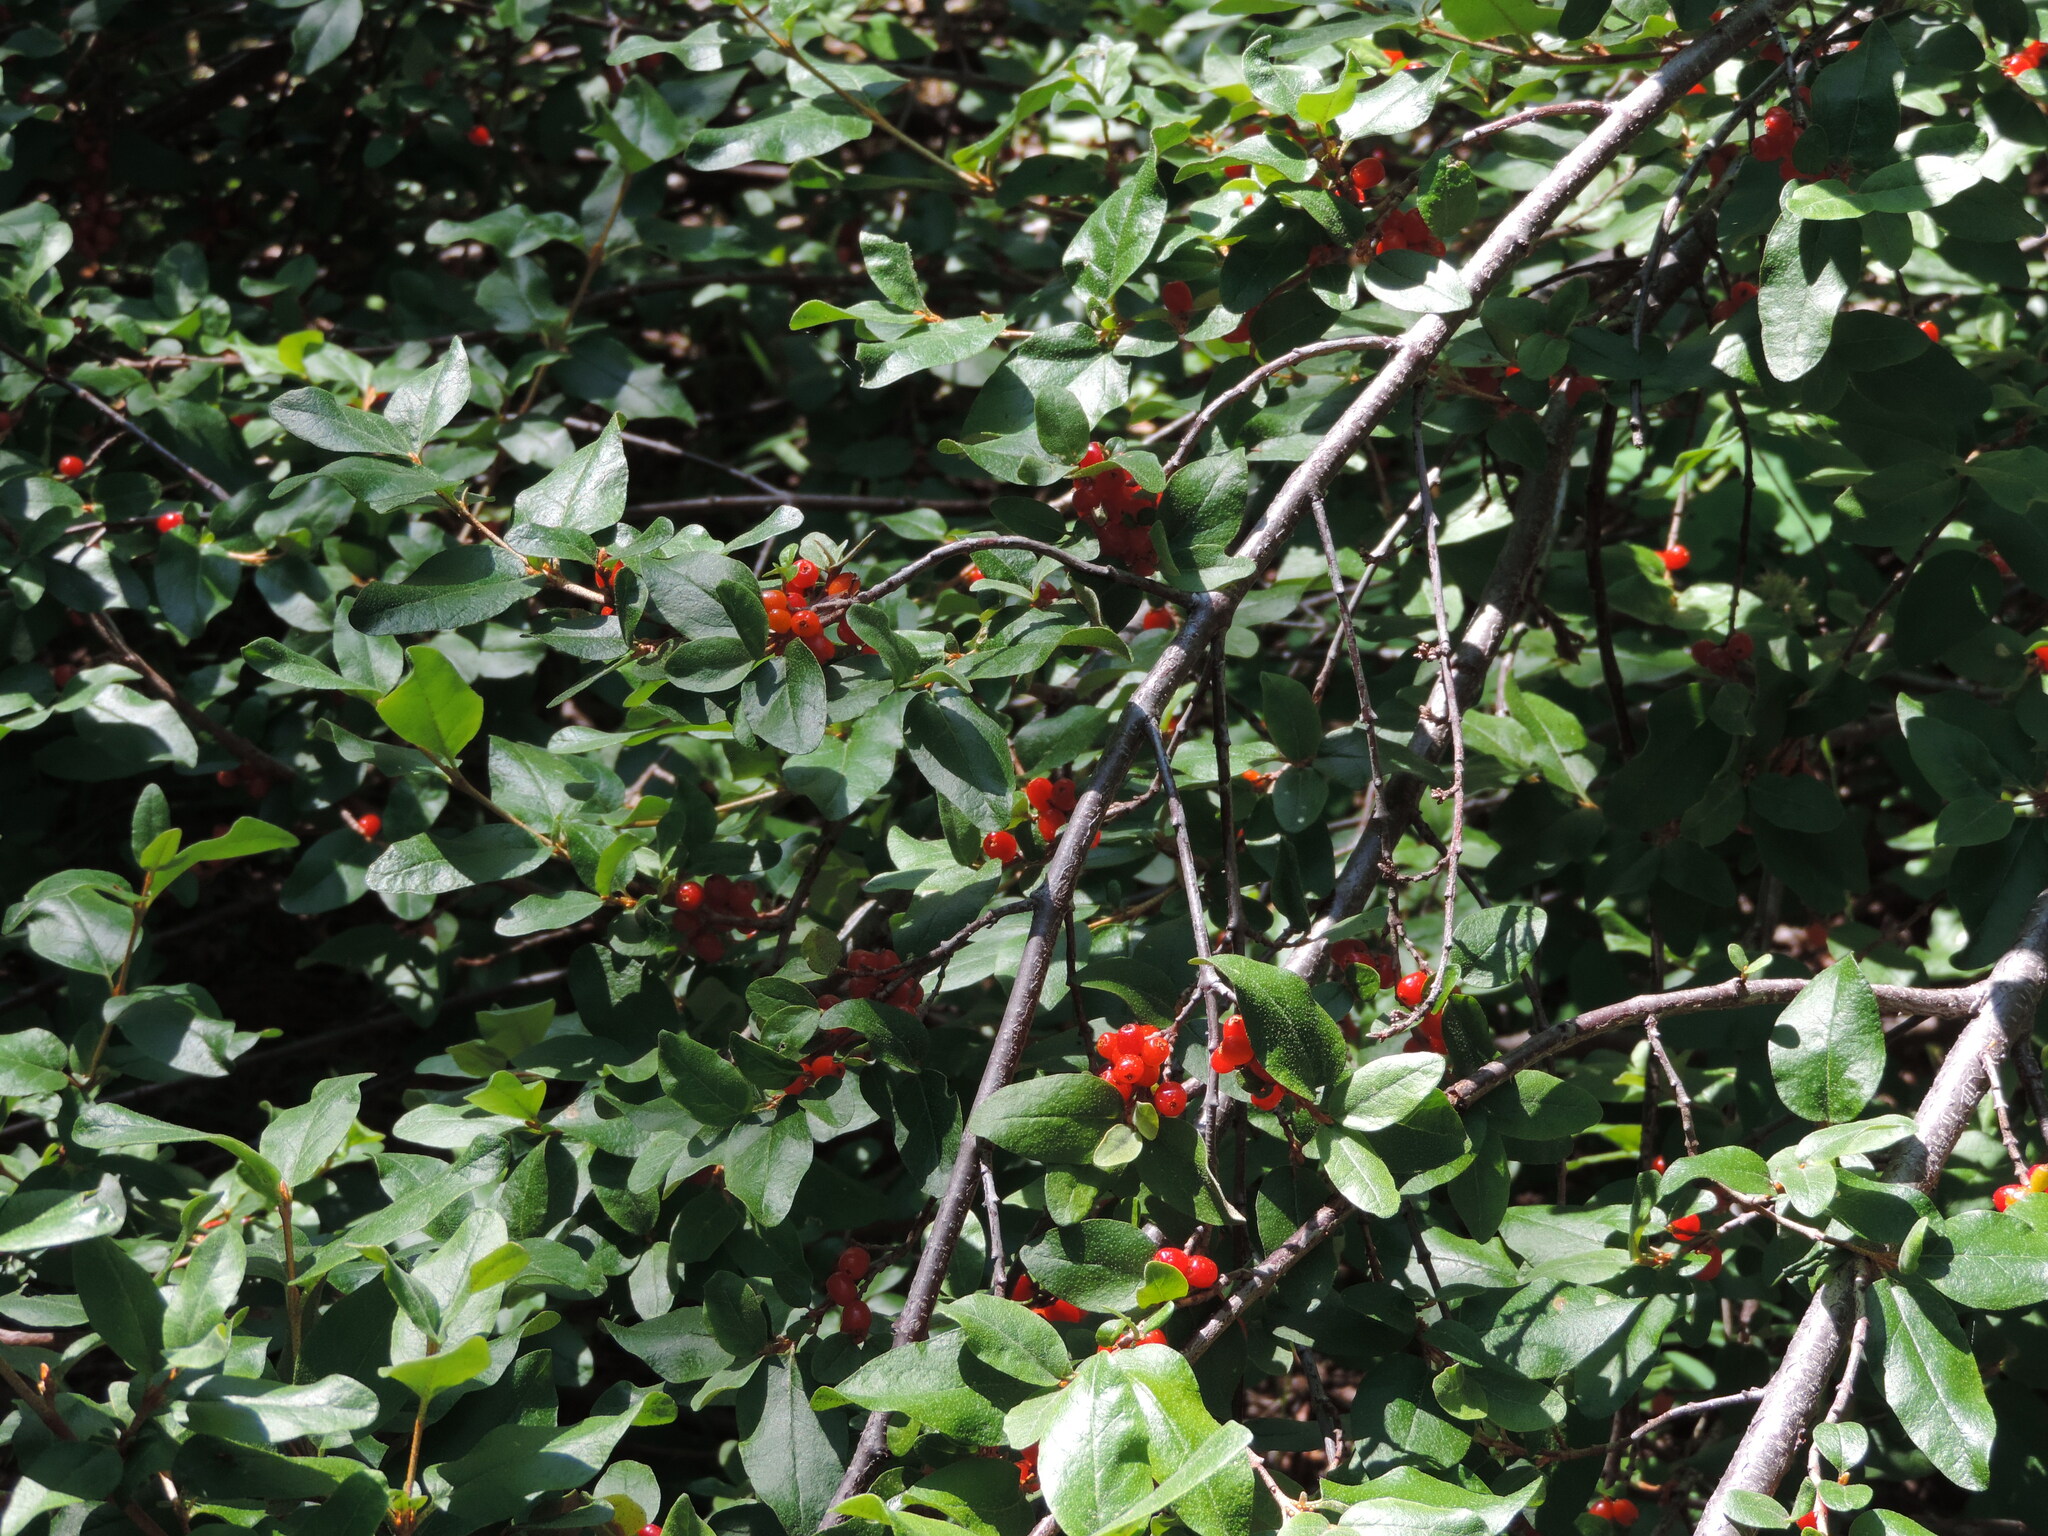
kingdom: Plantae
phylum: Tracheophyta
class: Magnoliopsida
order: Rosales
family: Elaeagnaceae
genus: Shepherdia
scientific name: Shepherdia canadensis
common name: Soapberry
